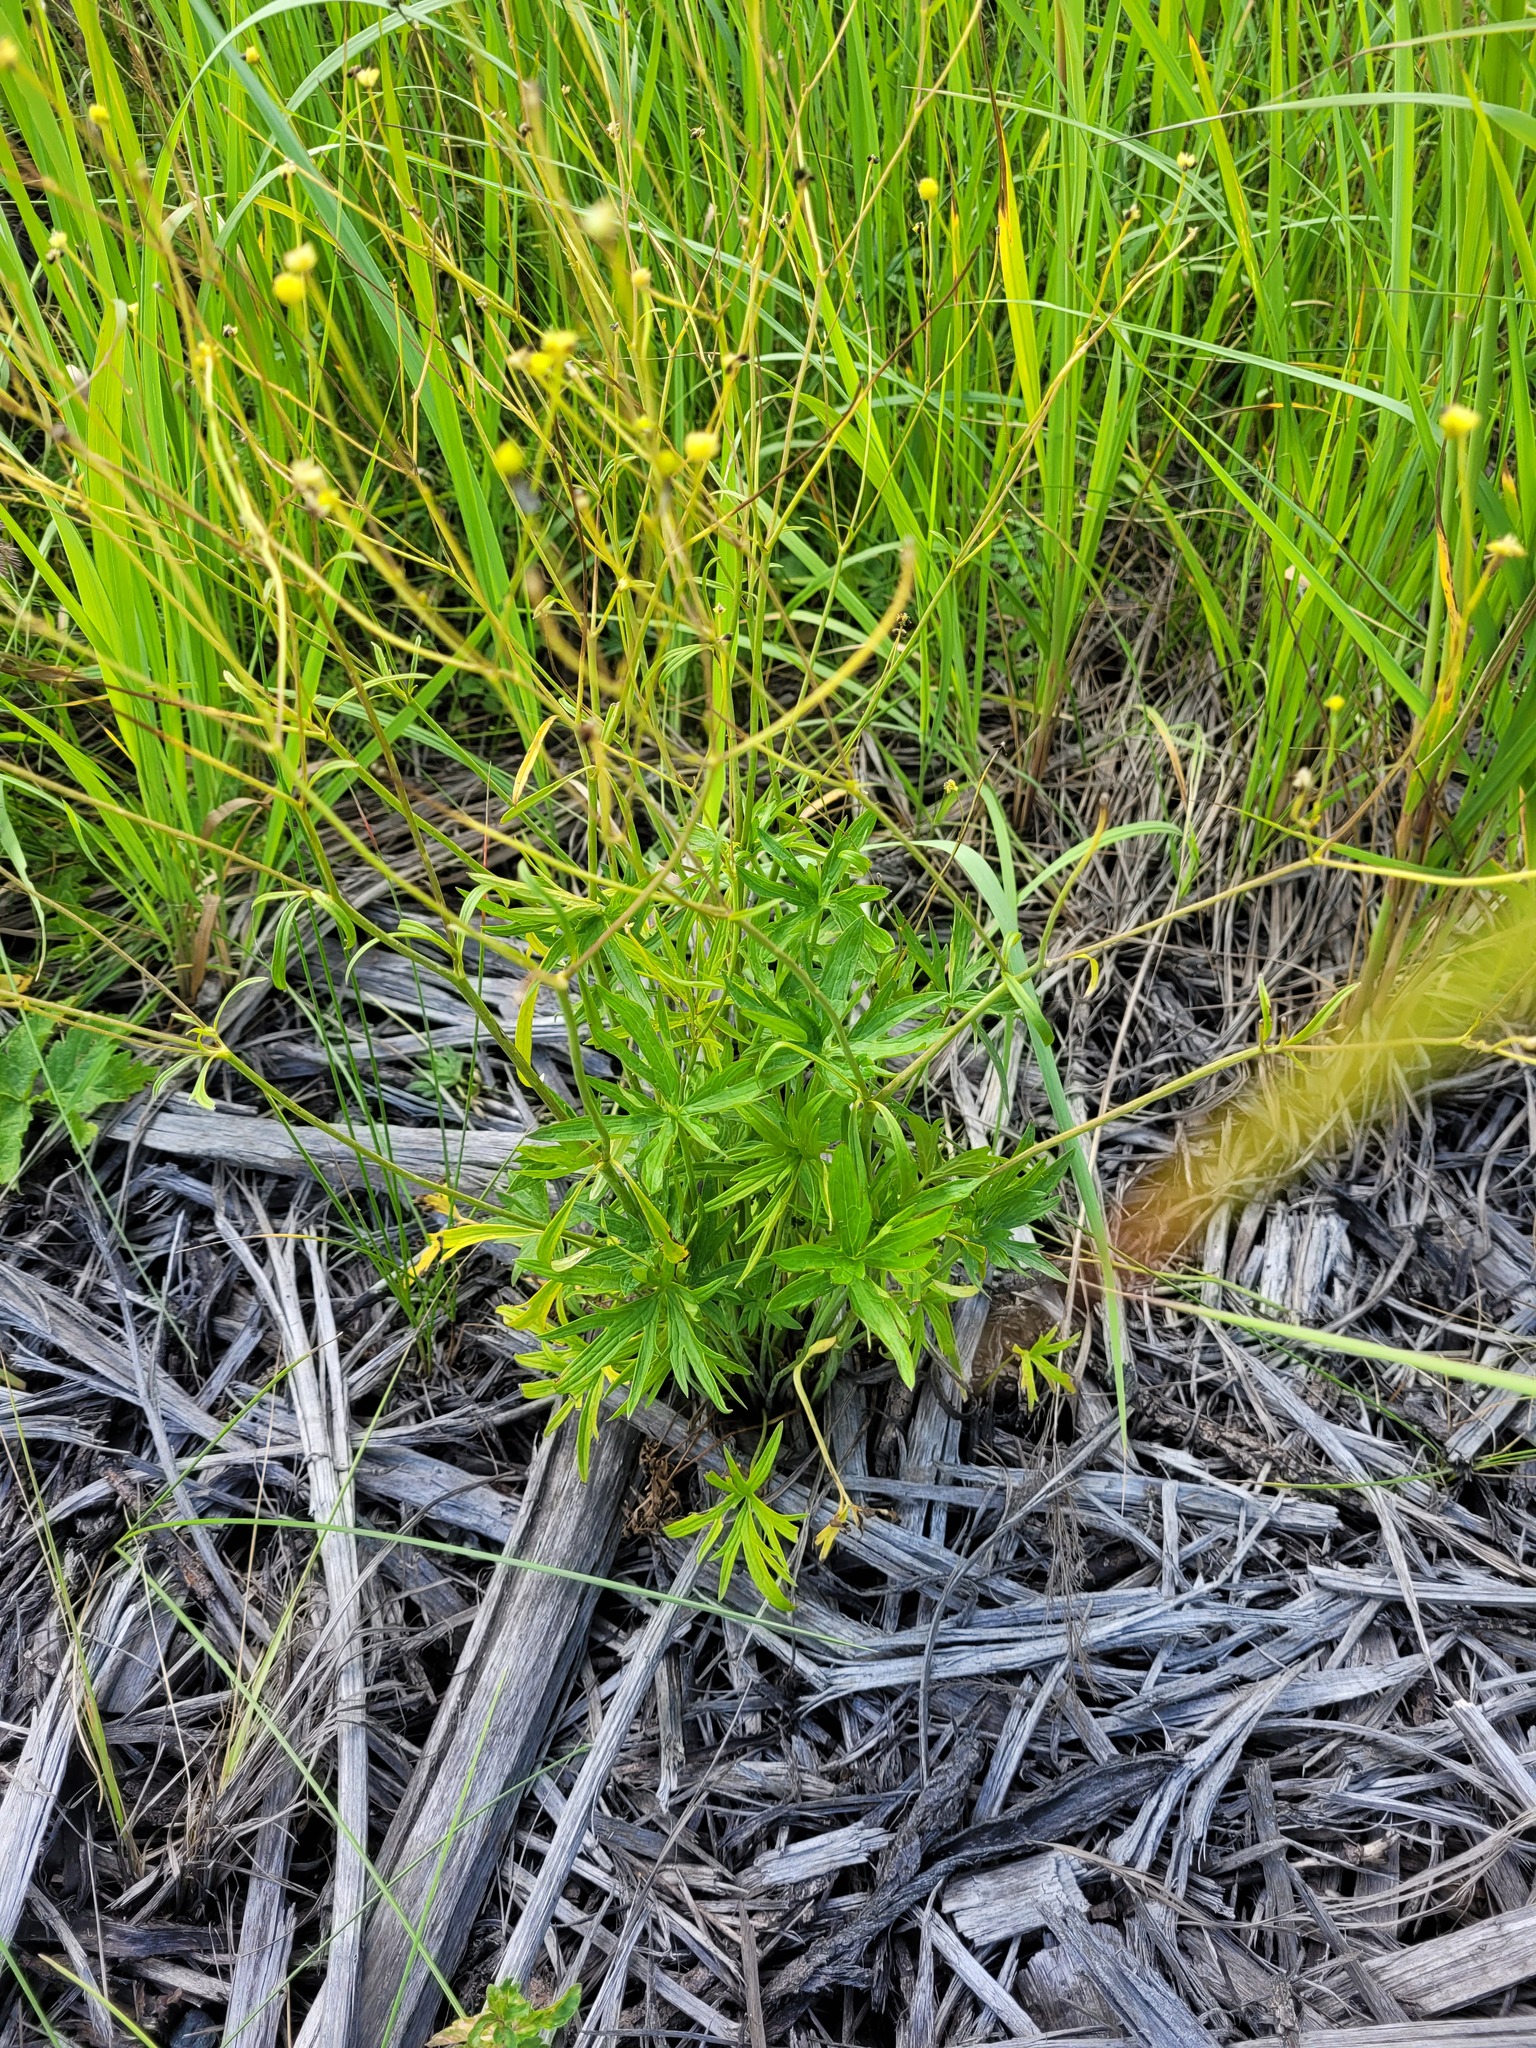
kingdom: Plantae
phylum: Tracheophyta
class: Magnoliopsida
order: Ranunculales
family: Ranunculaceae
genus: Ranunculus
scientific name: Ranunculus acris
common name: Meadow buttercup
